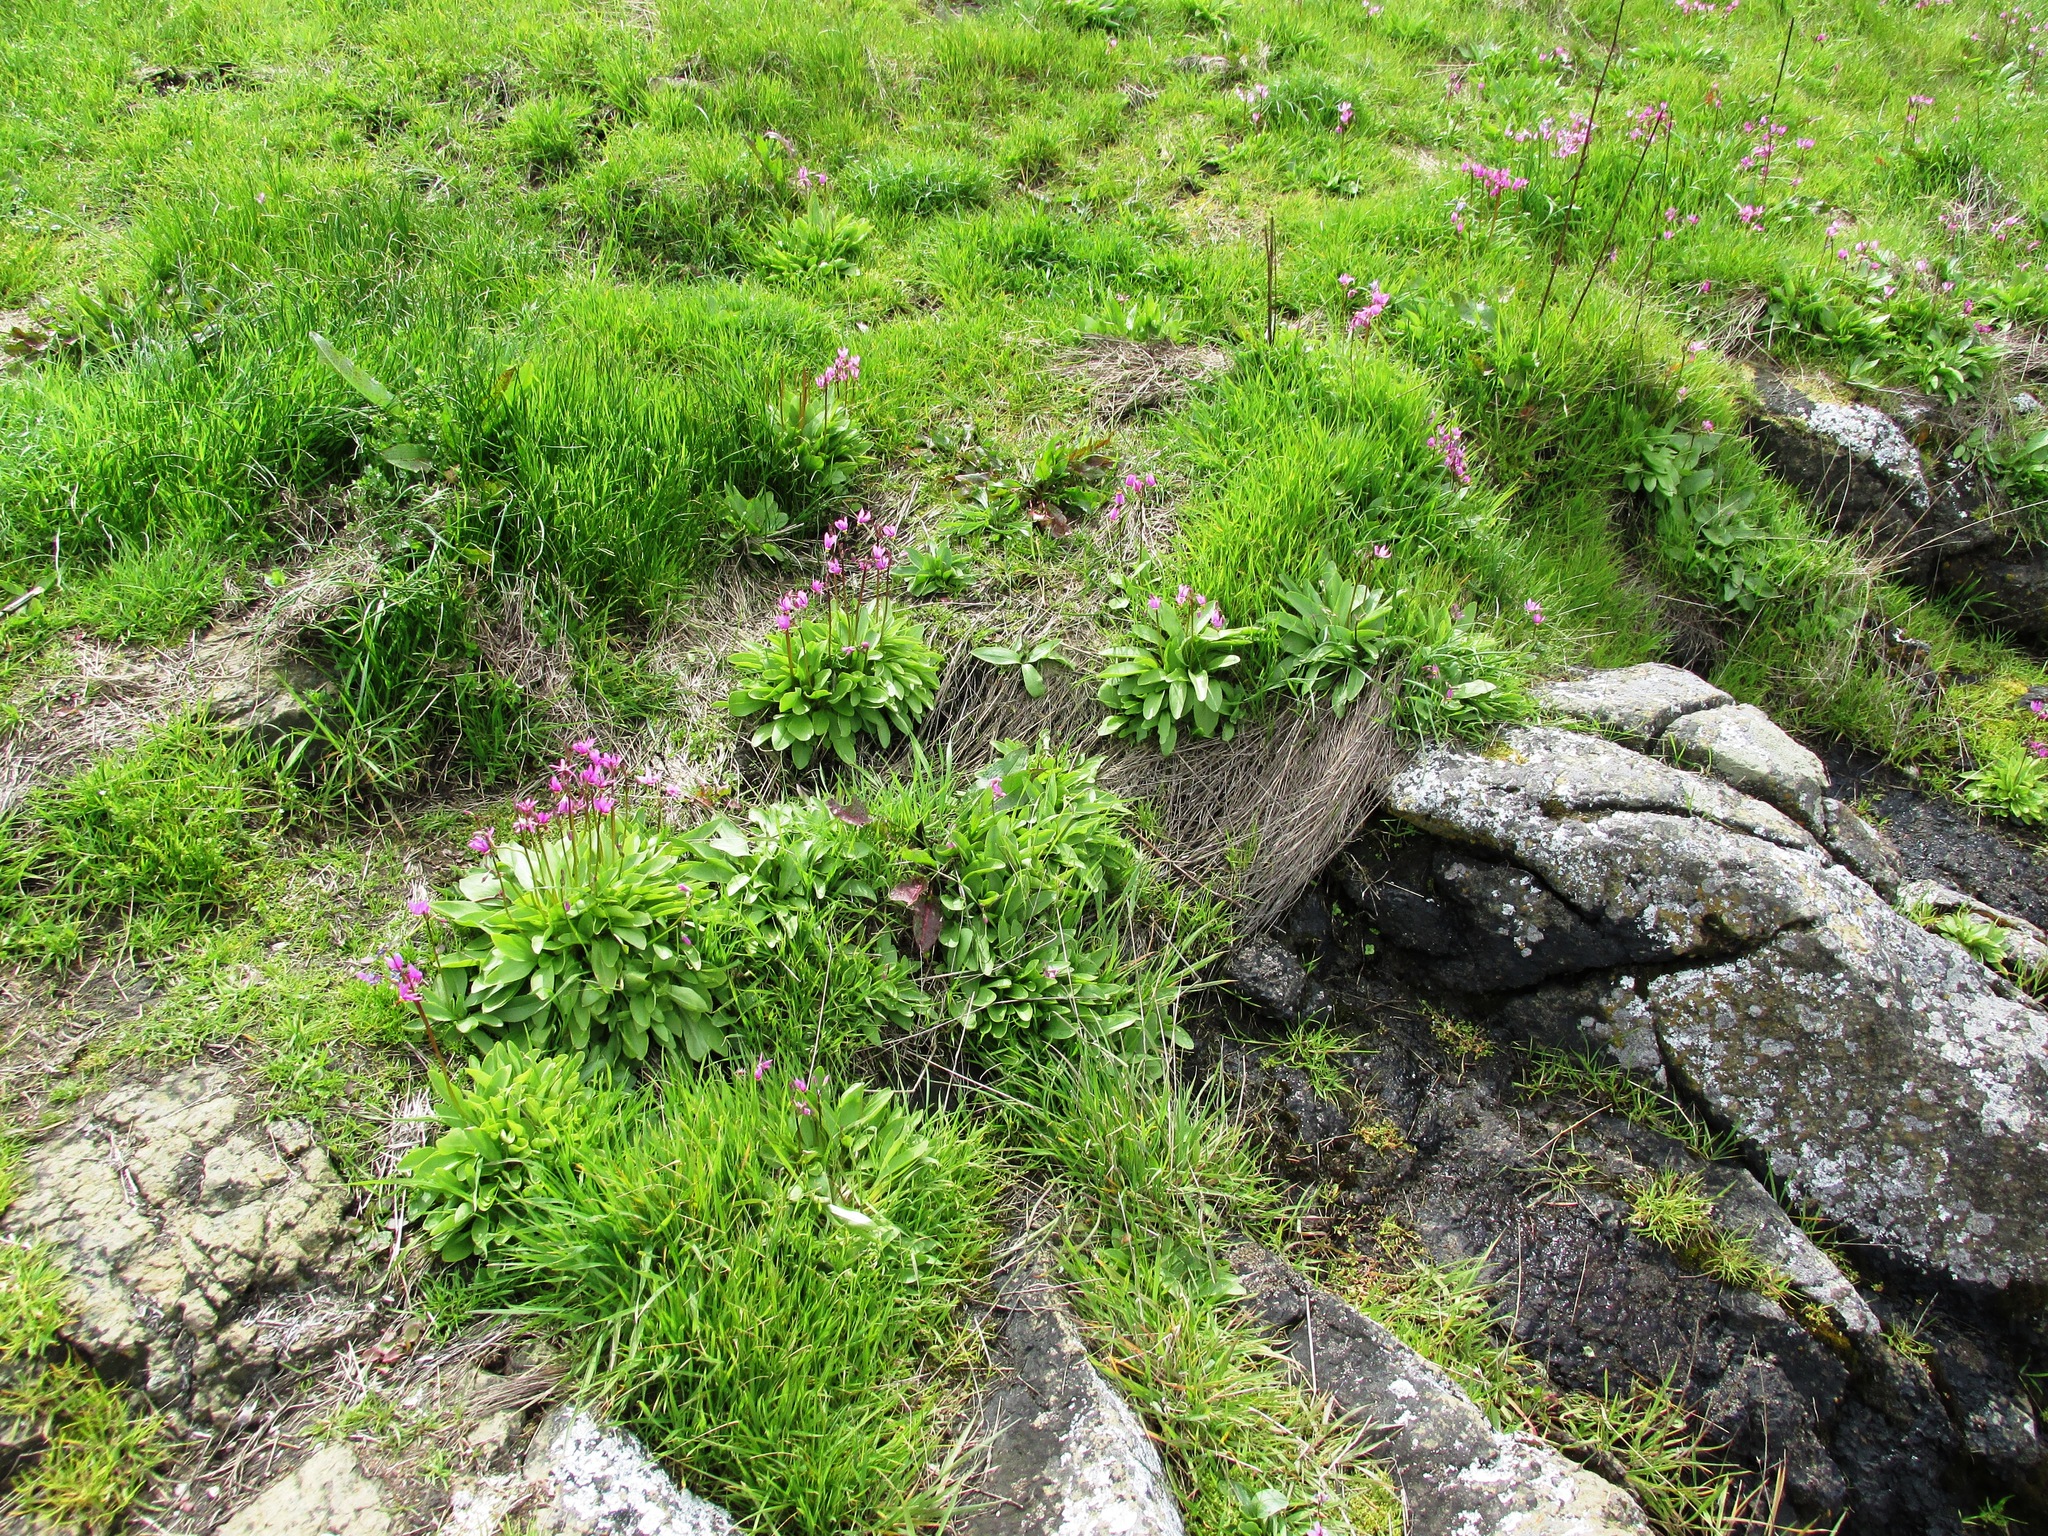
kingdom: Plantae
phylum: Tracheophyta
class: Magnoliopsida
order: Ericales
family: Primulaceae
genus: Dodecatheon
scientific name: Dodecatheon pulchellum
